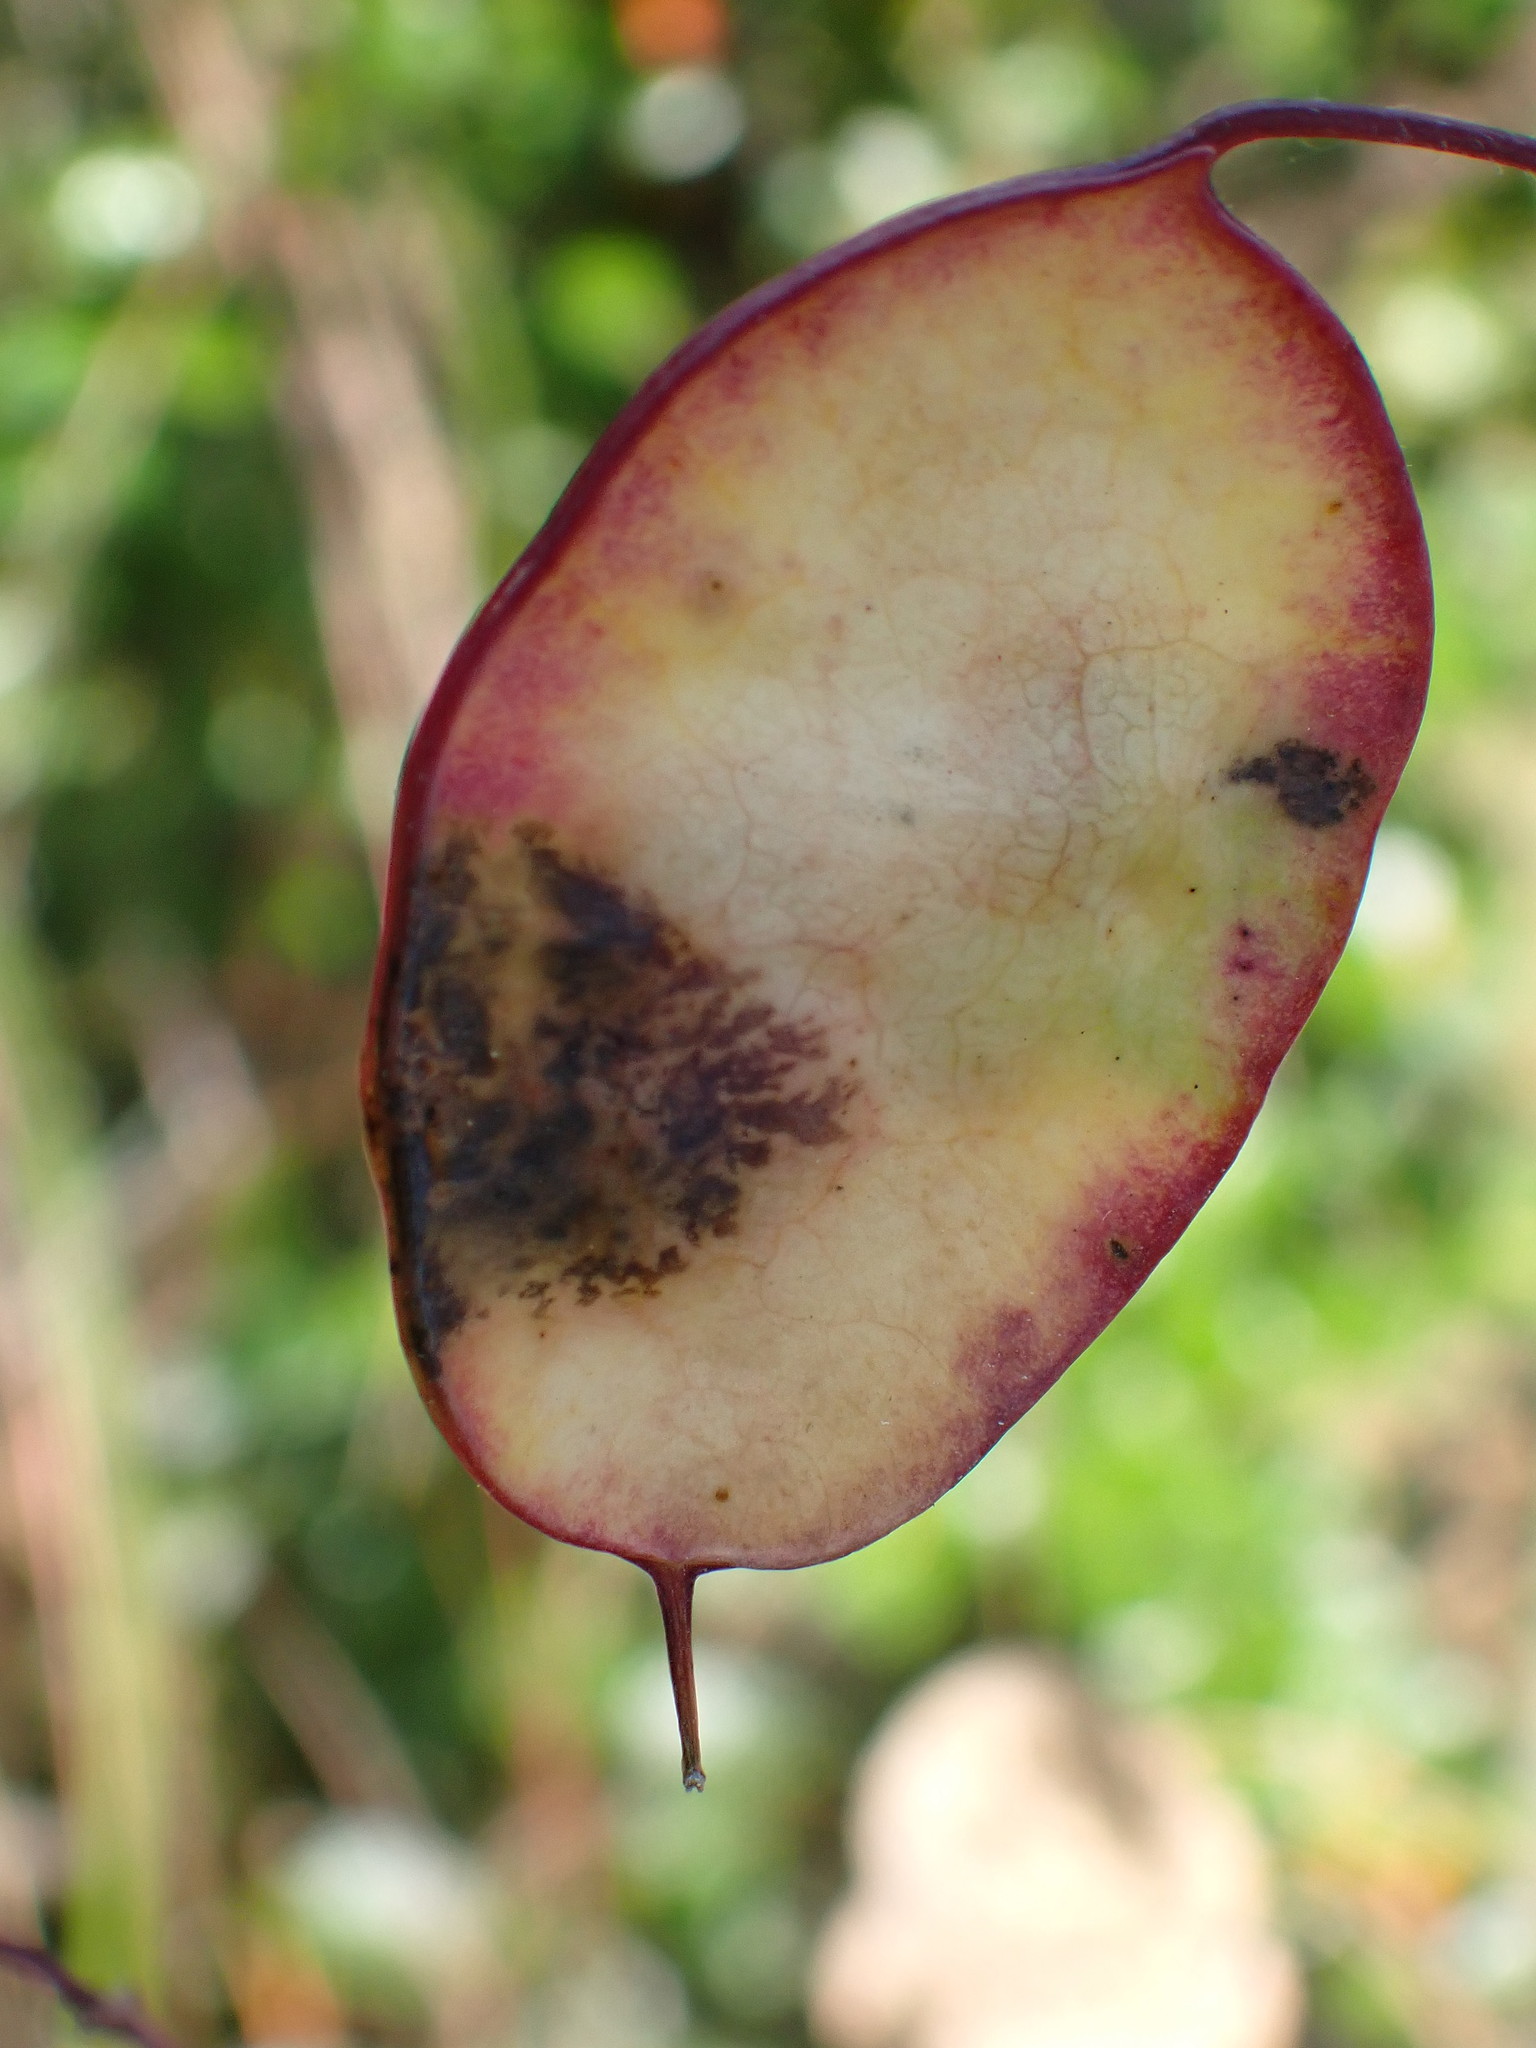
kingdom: Plantae
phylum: Tracheophyta
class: Magnoliopsida
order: Brassicales
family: Brassicaceae
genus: Lunaria
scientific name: Lunaria annua
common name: Honesty
